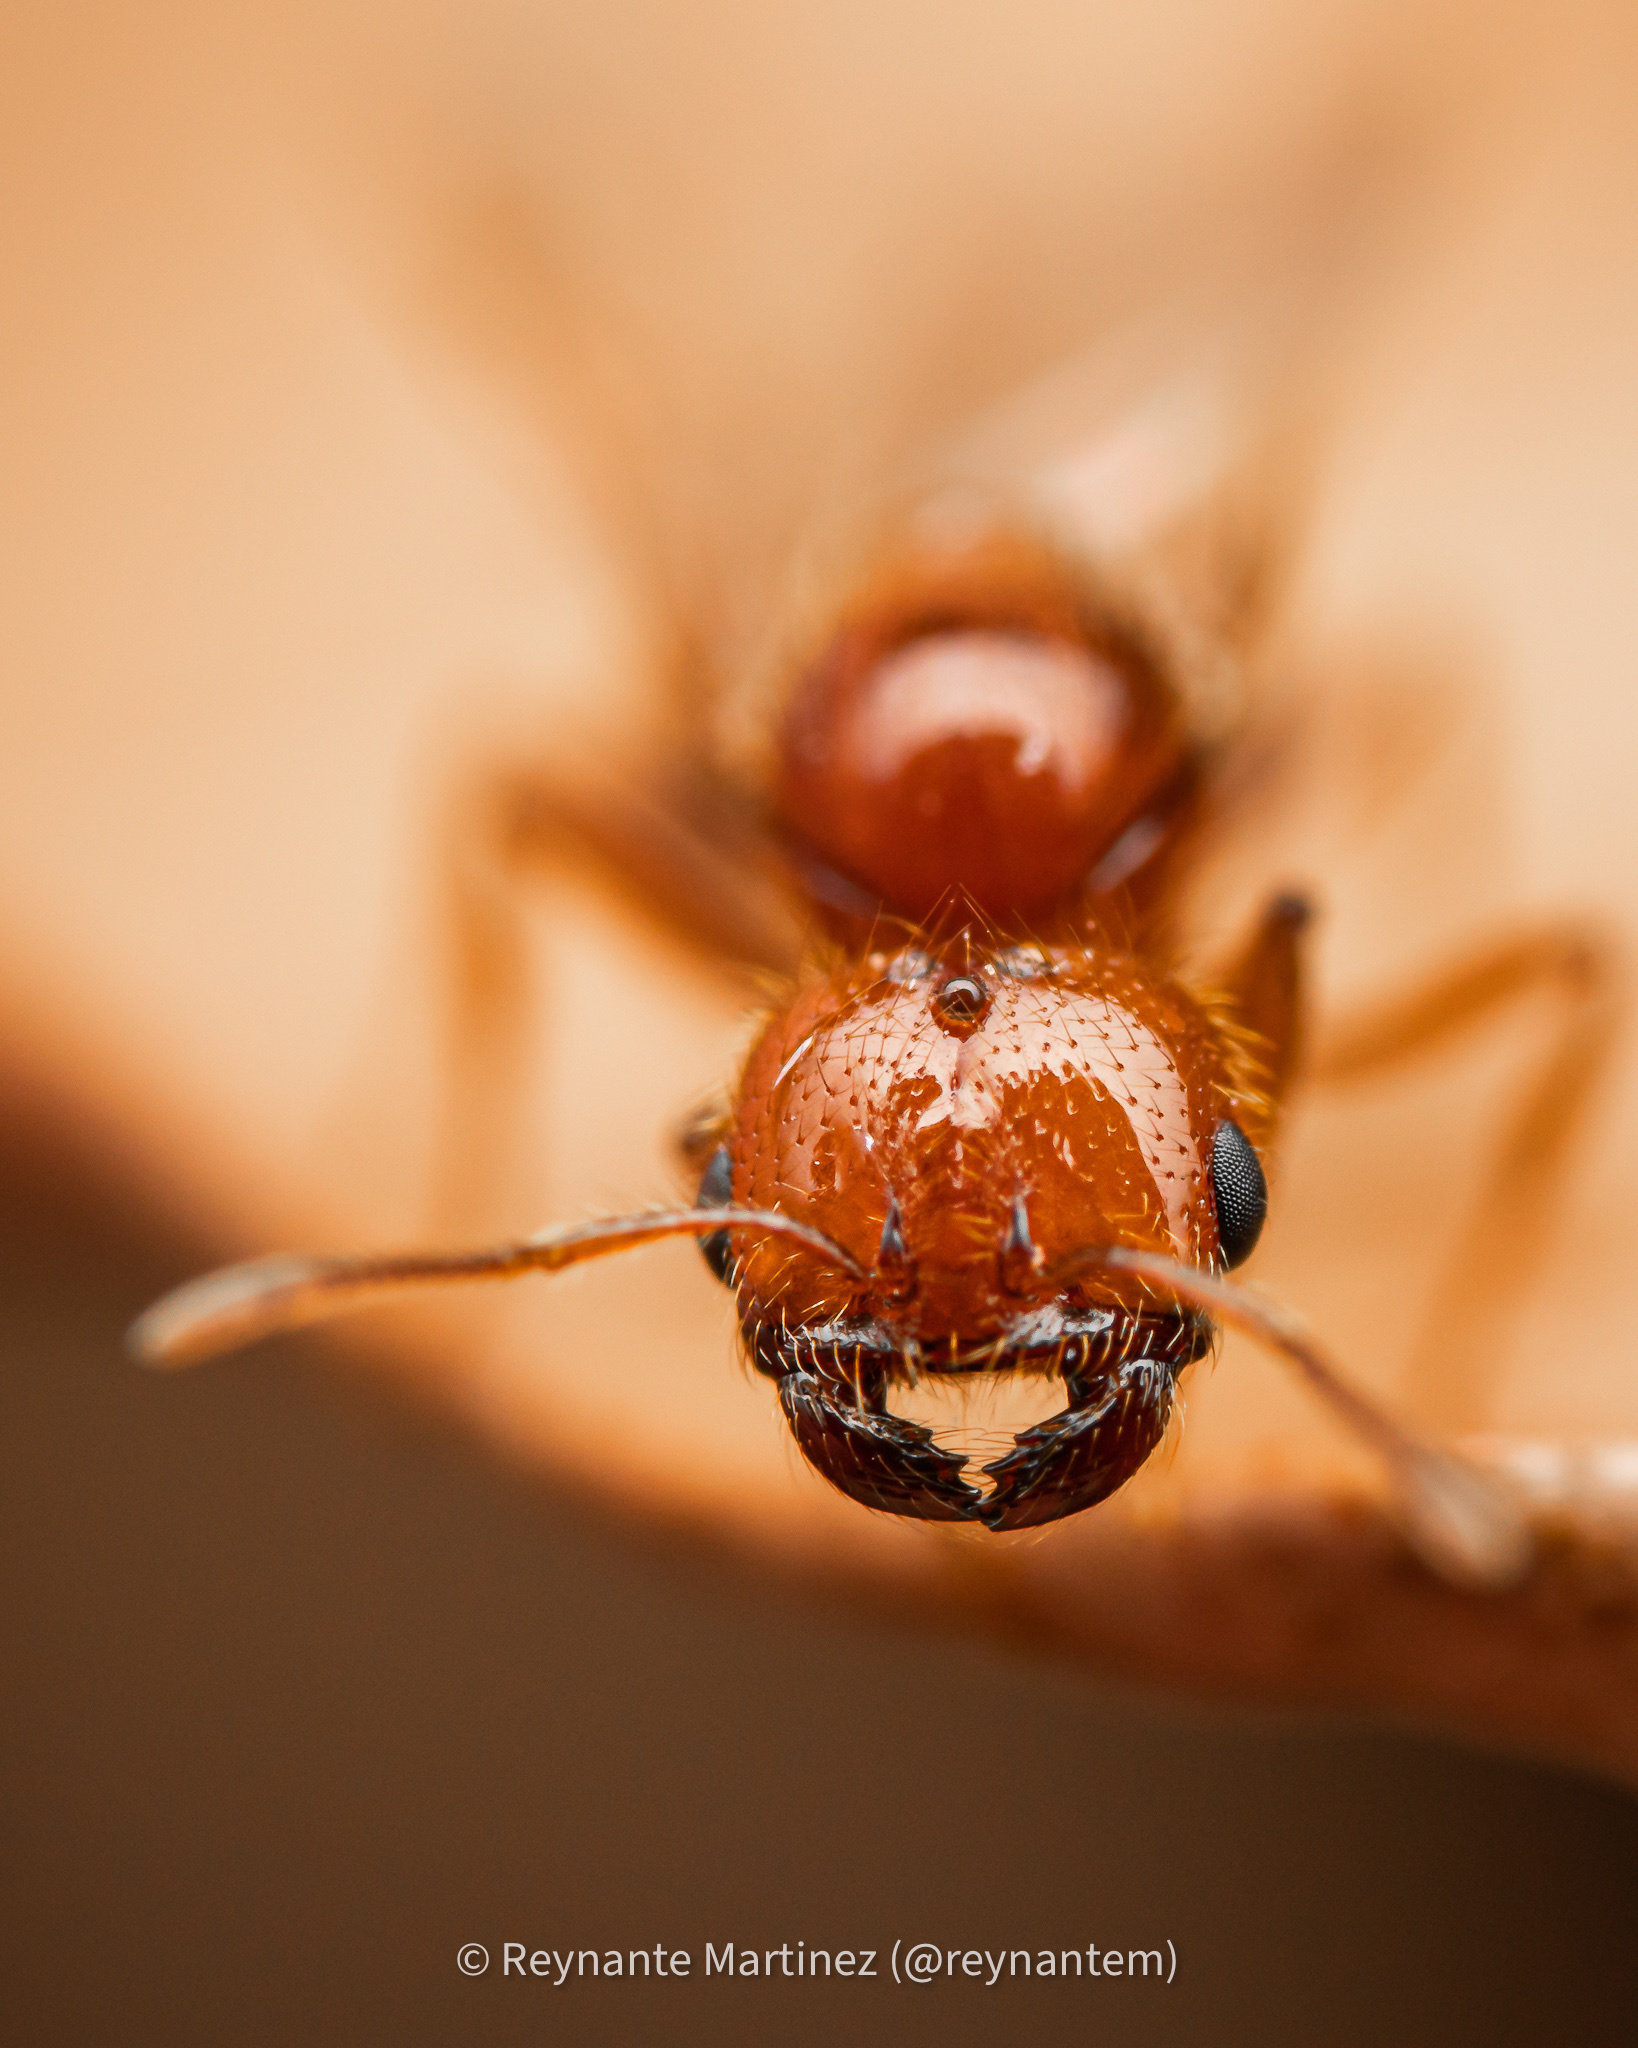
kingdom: Animalia
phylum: Arthropoda
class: Insecta
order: Hymenoptera
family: Formicidae
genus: Solenopsis
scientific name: Solenopsis geminata
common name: Tropical fire ant
